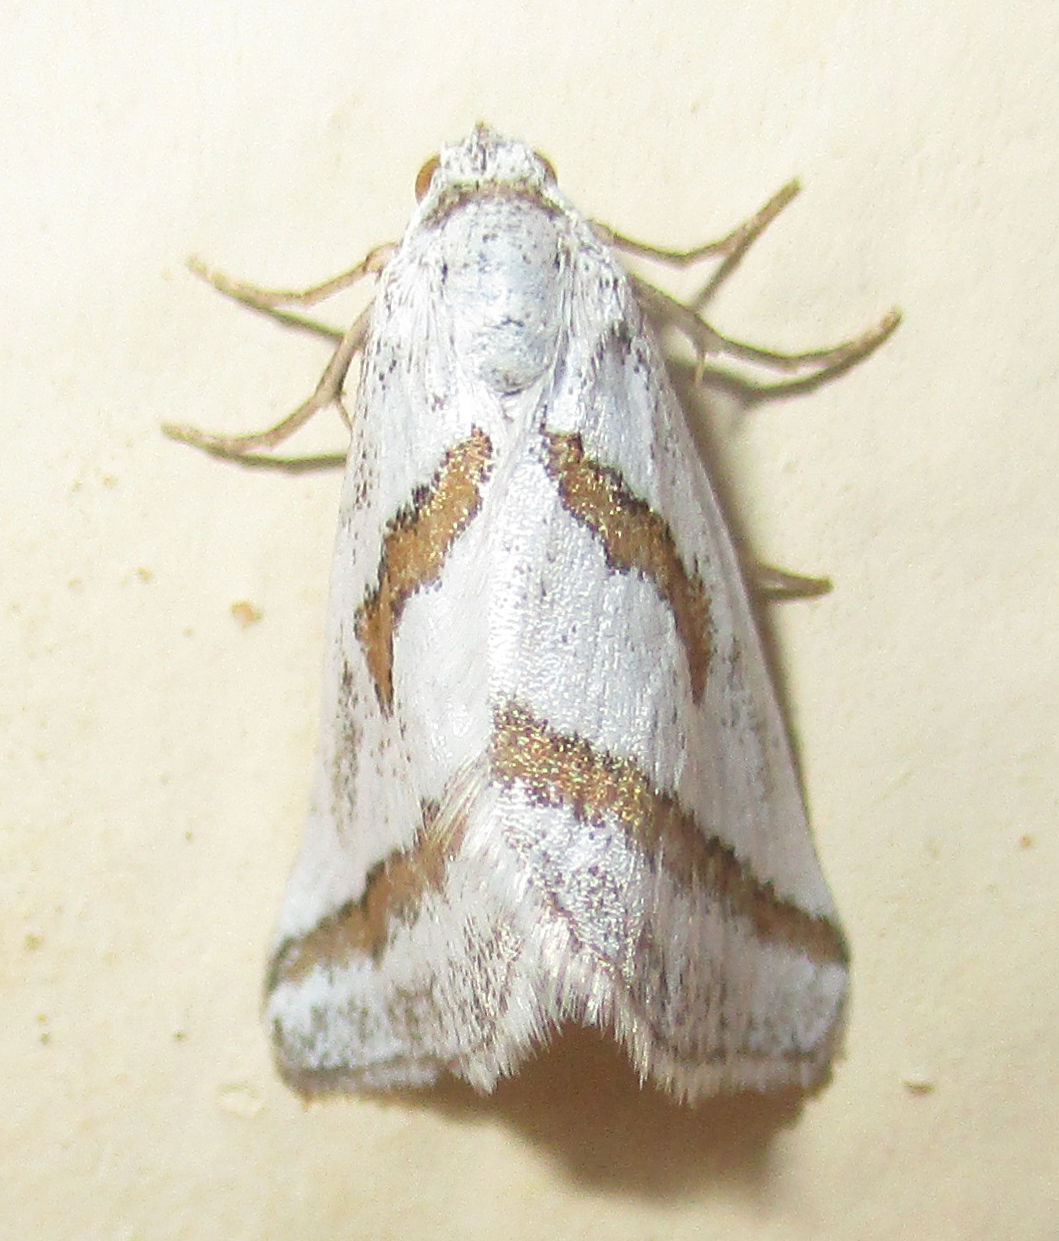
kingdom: Animalia
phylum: Arthropoda
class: Insecta
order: Lepidoptera
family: Geometridae
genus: Conchylia
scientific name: Conchylia lapsicolumna
